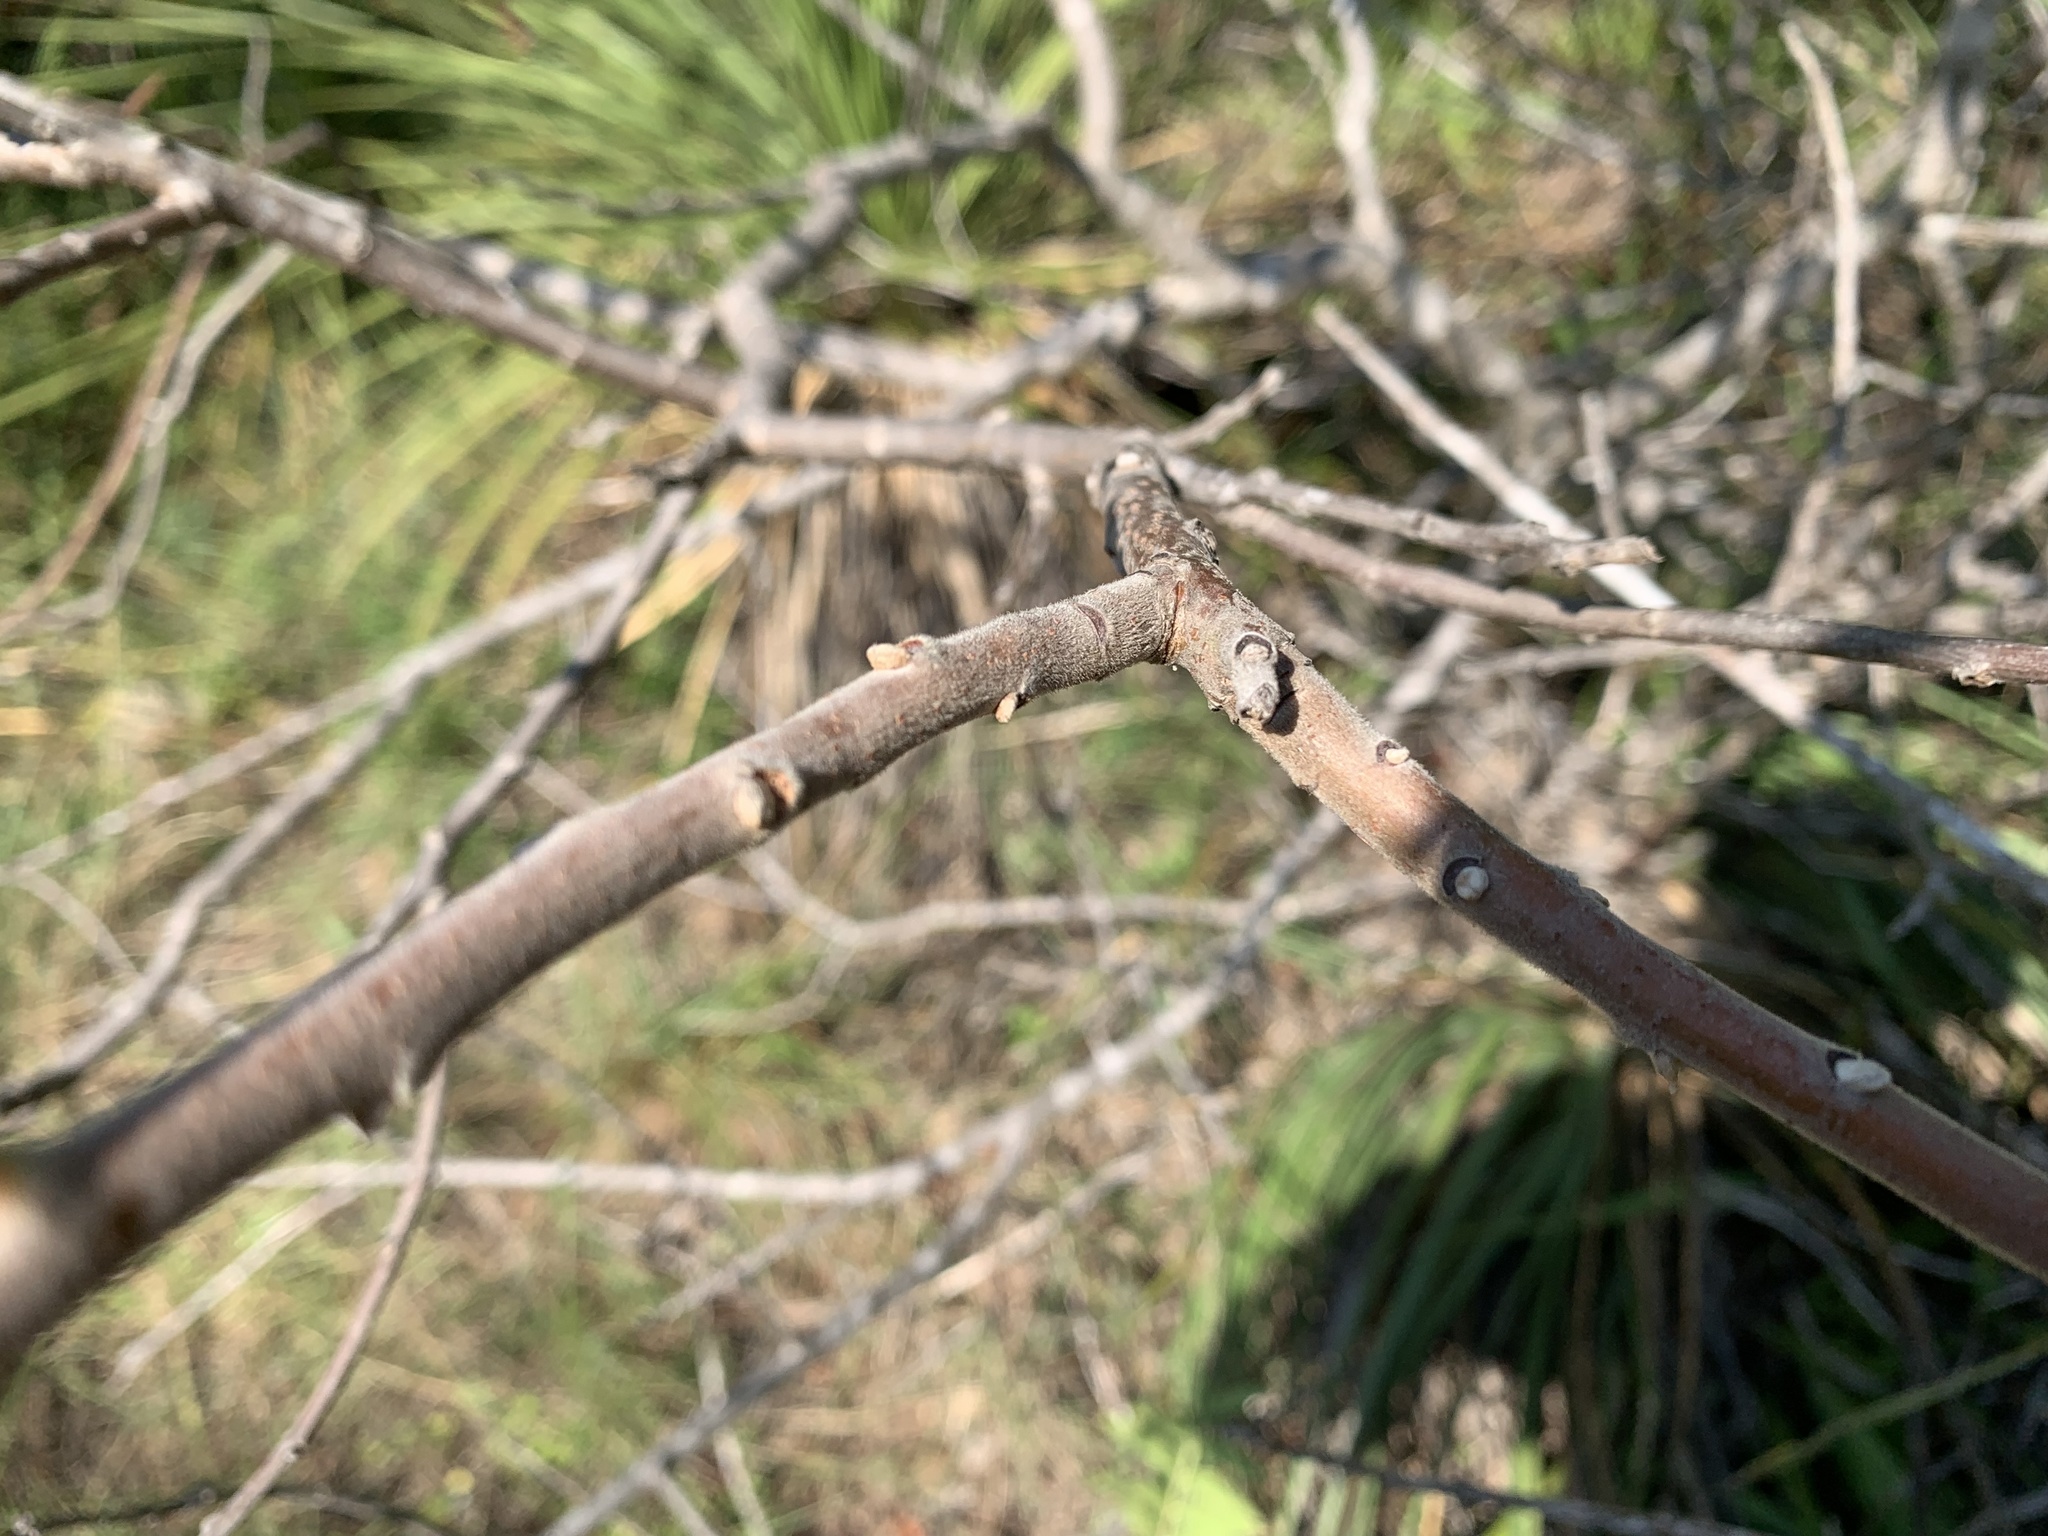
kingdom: Plantae
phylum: Tracheophyta
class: Magnoliopsida
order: Sapindales
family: Anacardiaceae
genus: Rhus
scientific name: Rhus lanceolata
